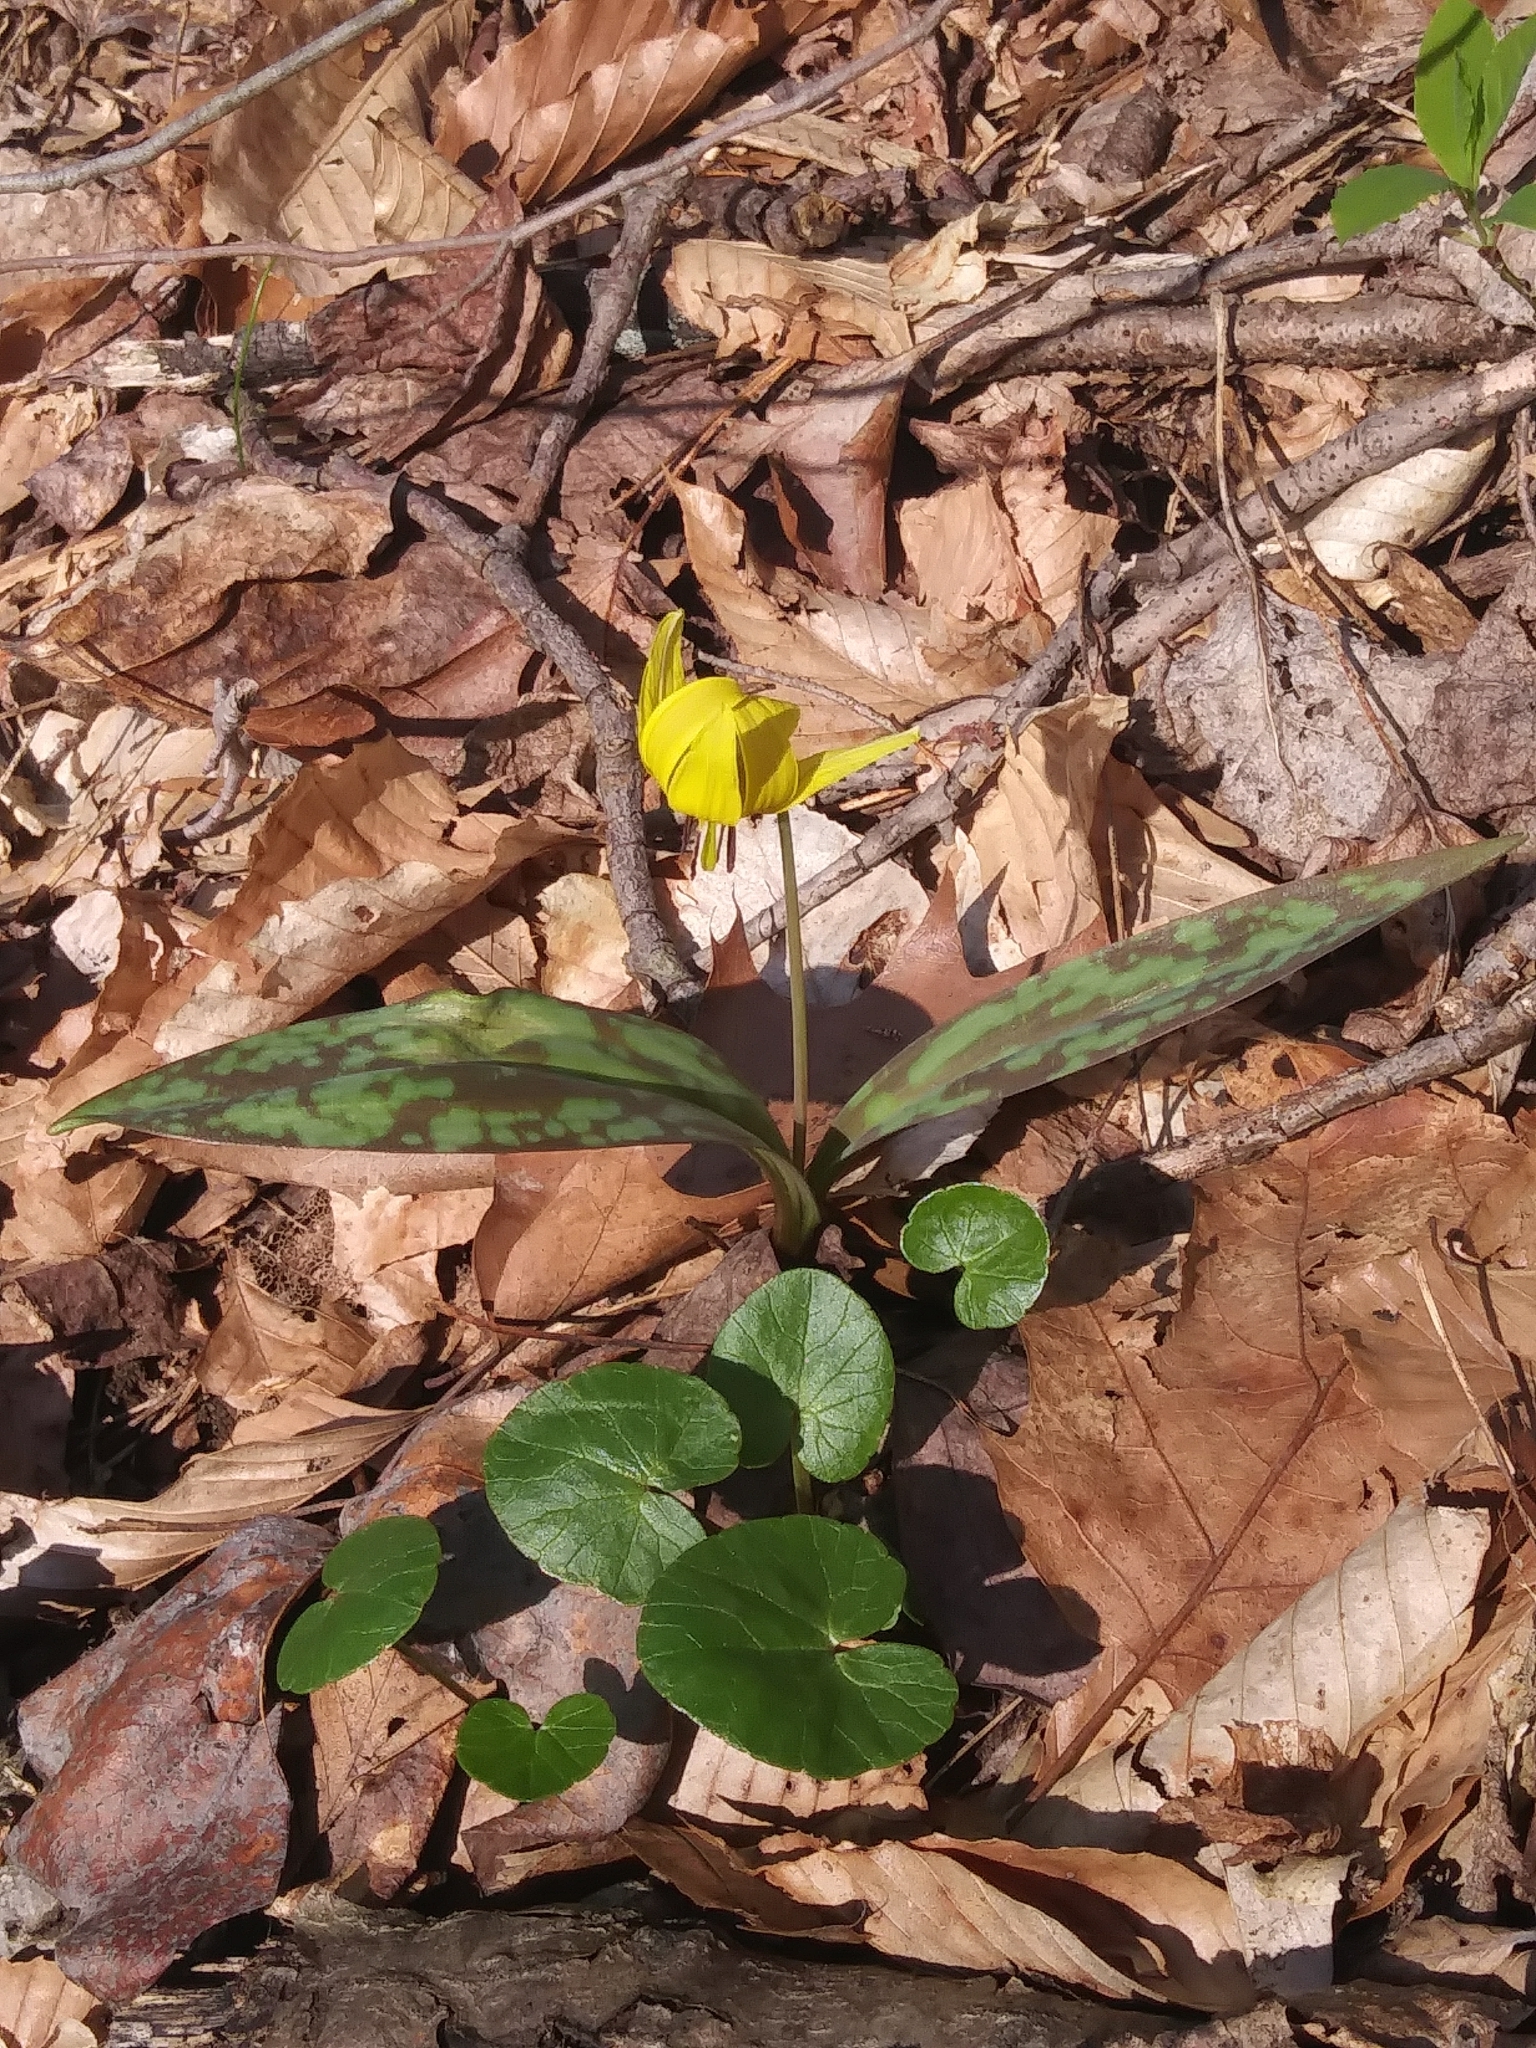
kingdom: Plantae
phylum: Tracheophyta
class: Liliopsida
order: Liliales
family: Liliaceae
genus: Erythronium
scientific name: Erythronium americanum
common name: Yellow adder's-tongue
